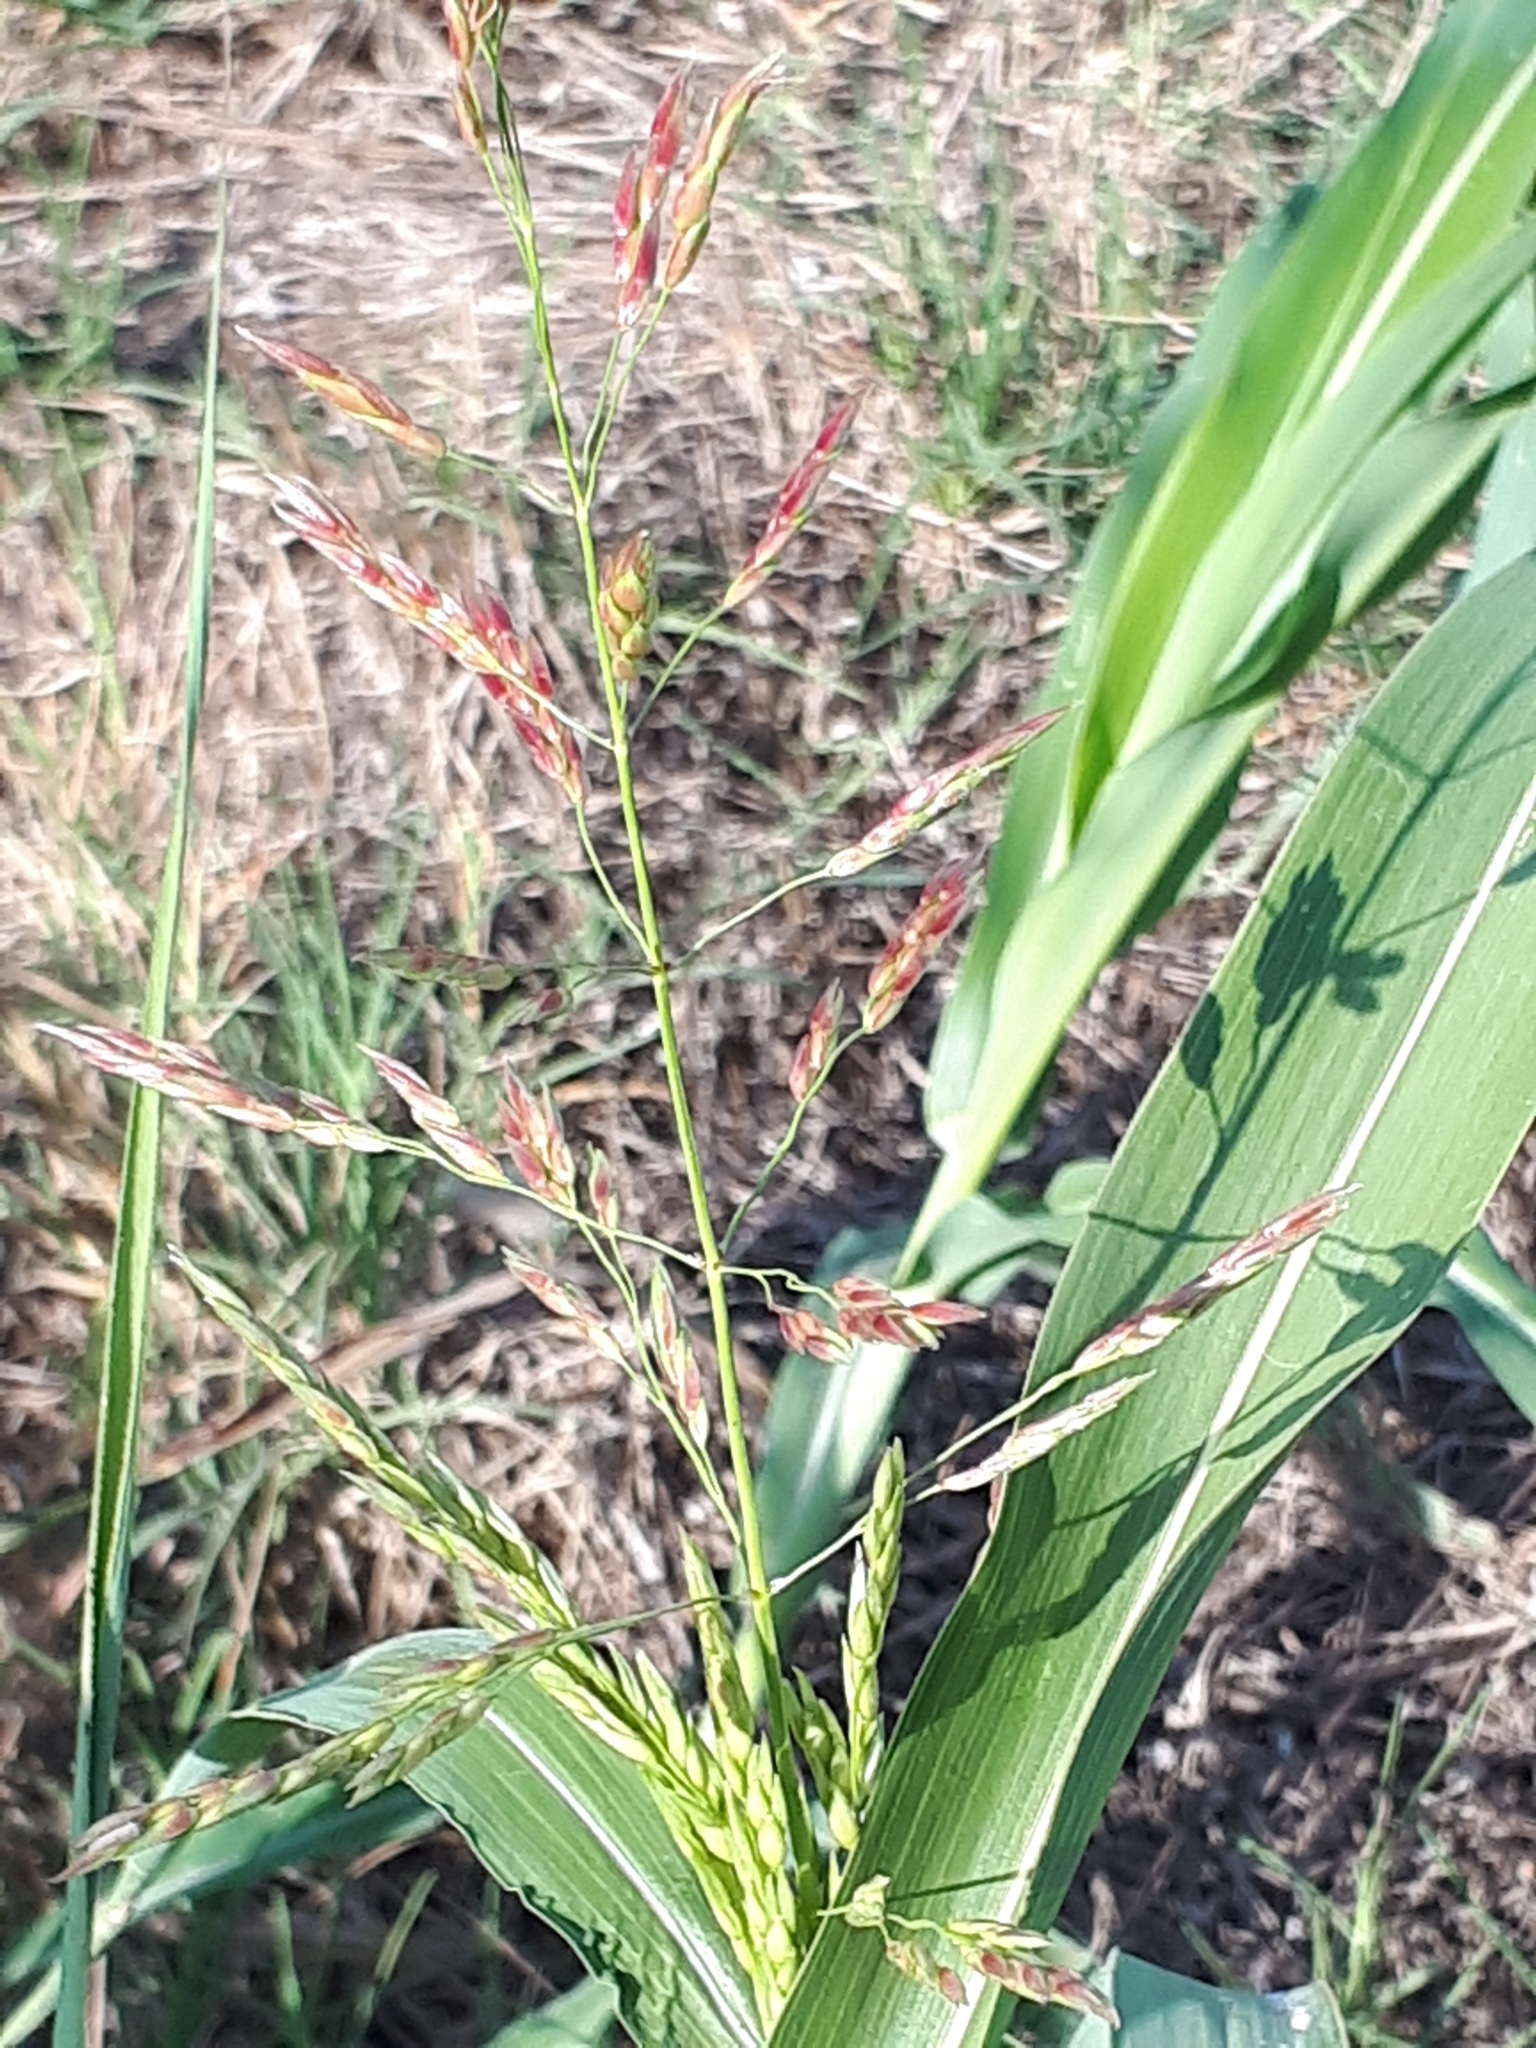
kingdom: Plantae
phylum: Tracheophyta
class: Liliopsida
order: Poales
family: Poaceae
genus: Sorghum
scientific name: Sorghum halepense
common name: Johnson-grass
